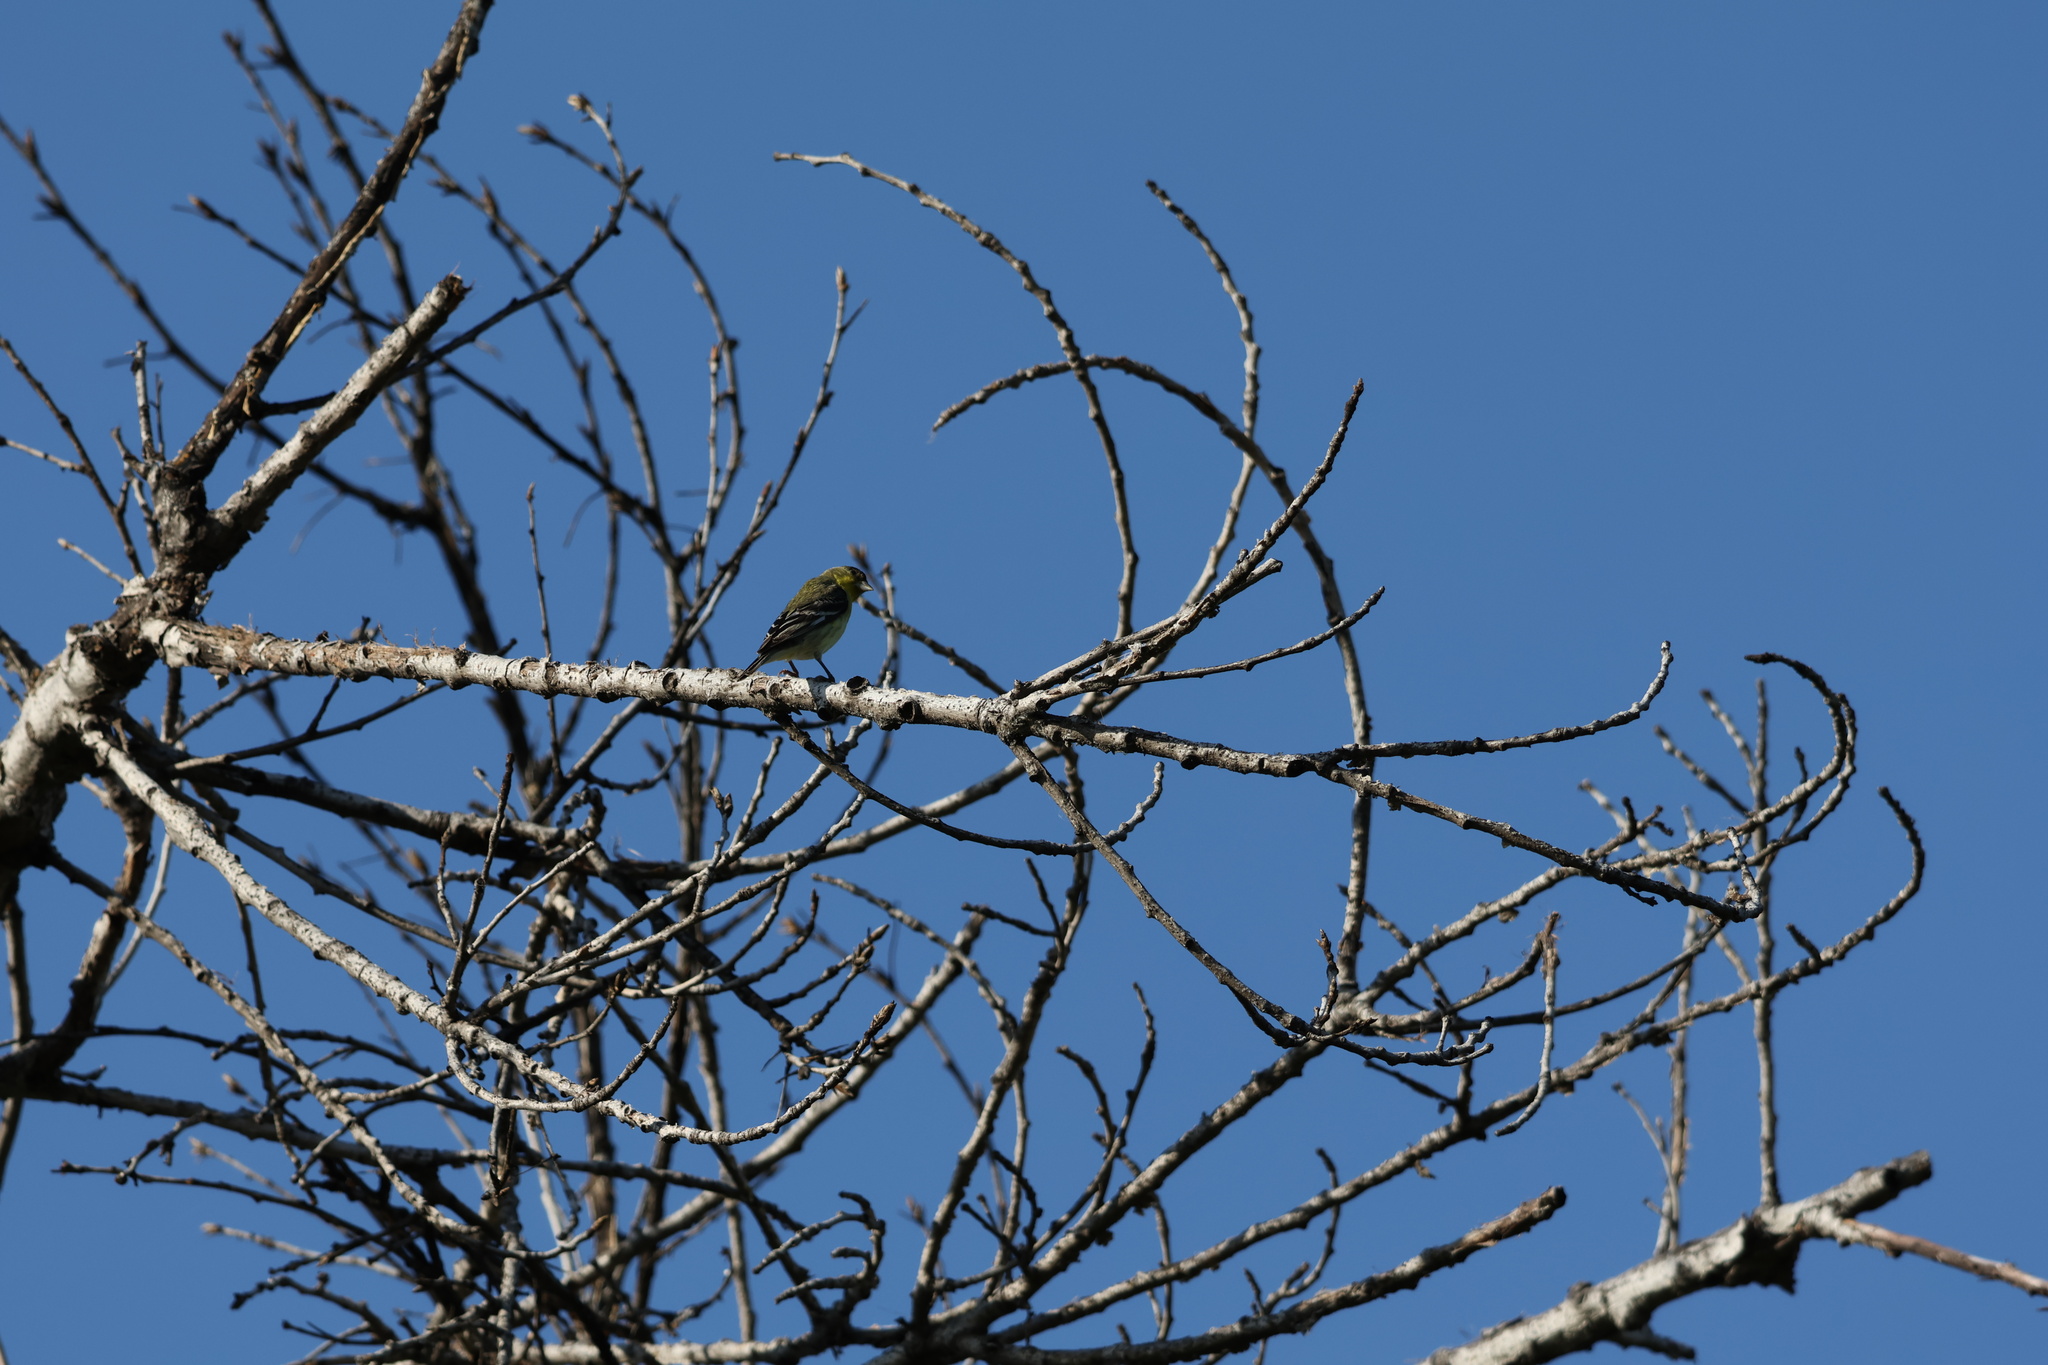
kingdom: Animalia
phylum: Chordata
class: Aves
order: Passeriformes
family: Fringillidae
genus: Spinus
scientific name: Spinus psaltria
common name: Lesser goldfinch
